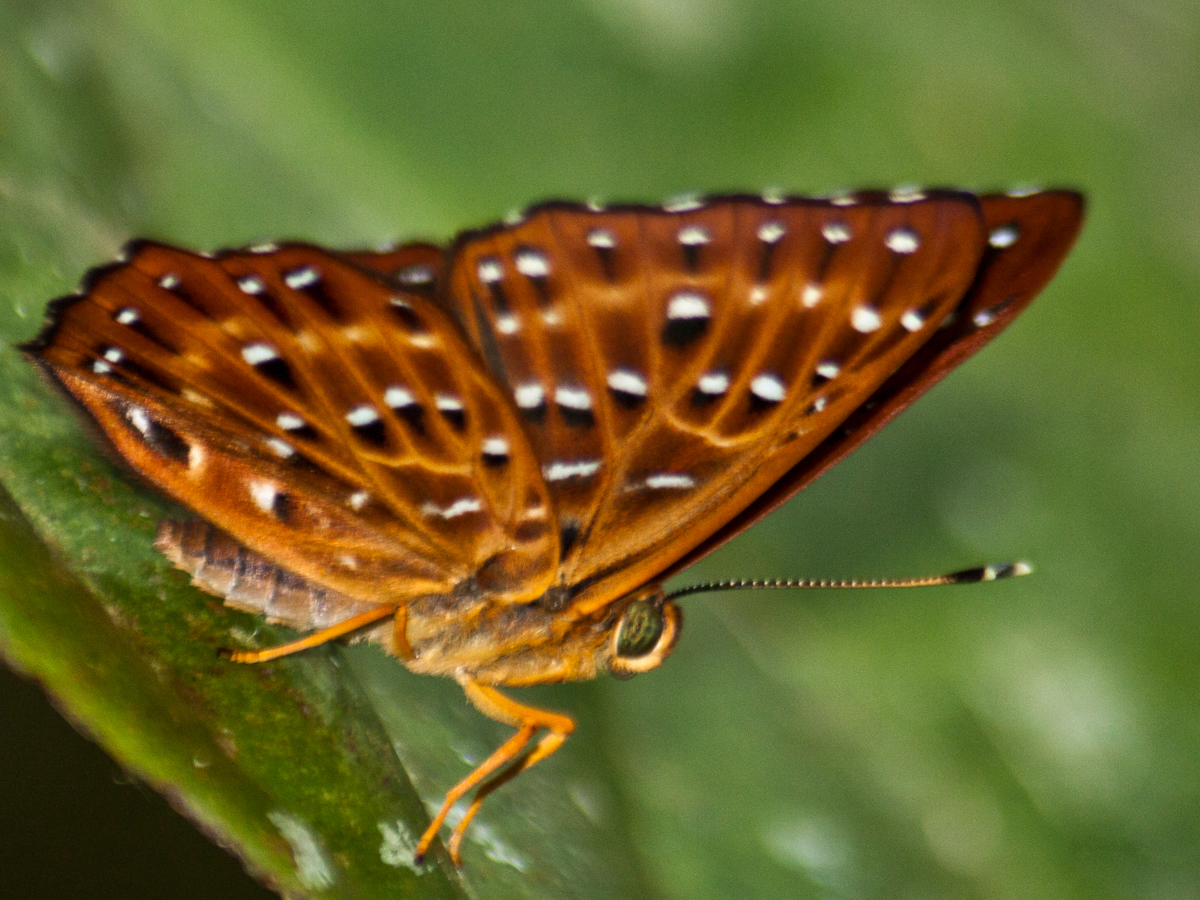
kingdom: Animalia
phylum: Arthropoda
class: Insecta
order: Lepidoptera
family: Riodinidae
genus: Zemeros
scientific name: Zemeros flegyas
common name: Punchinello
